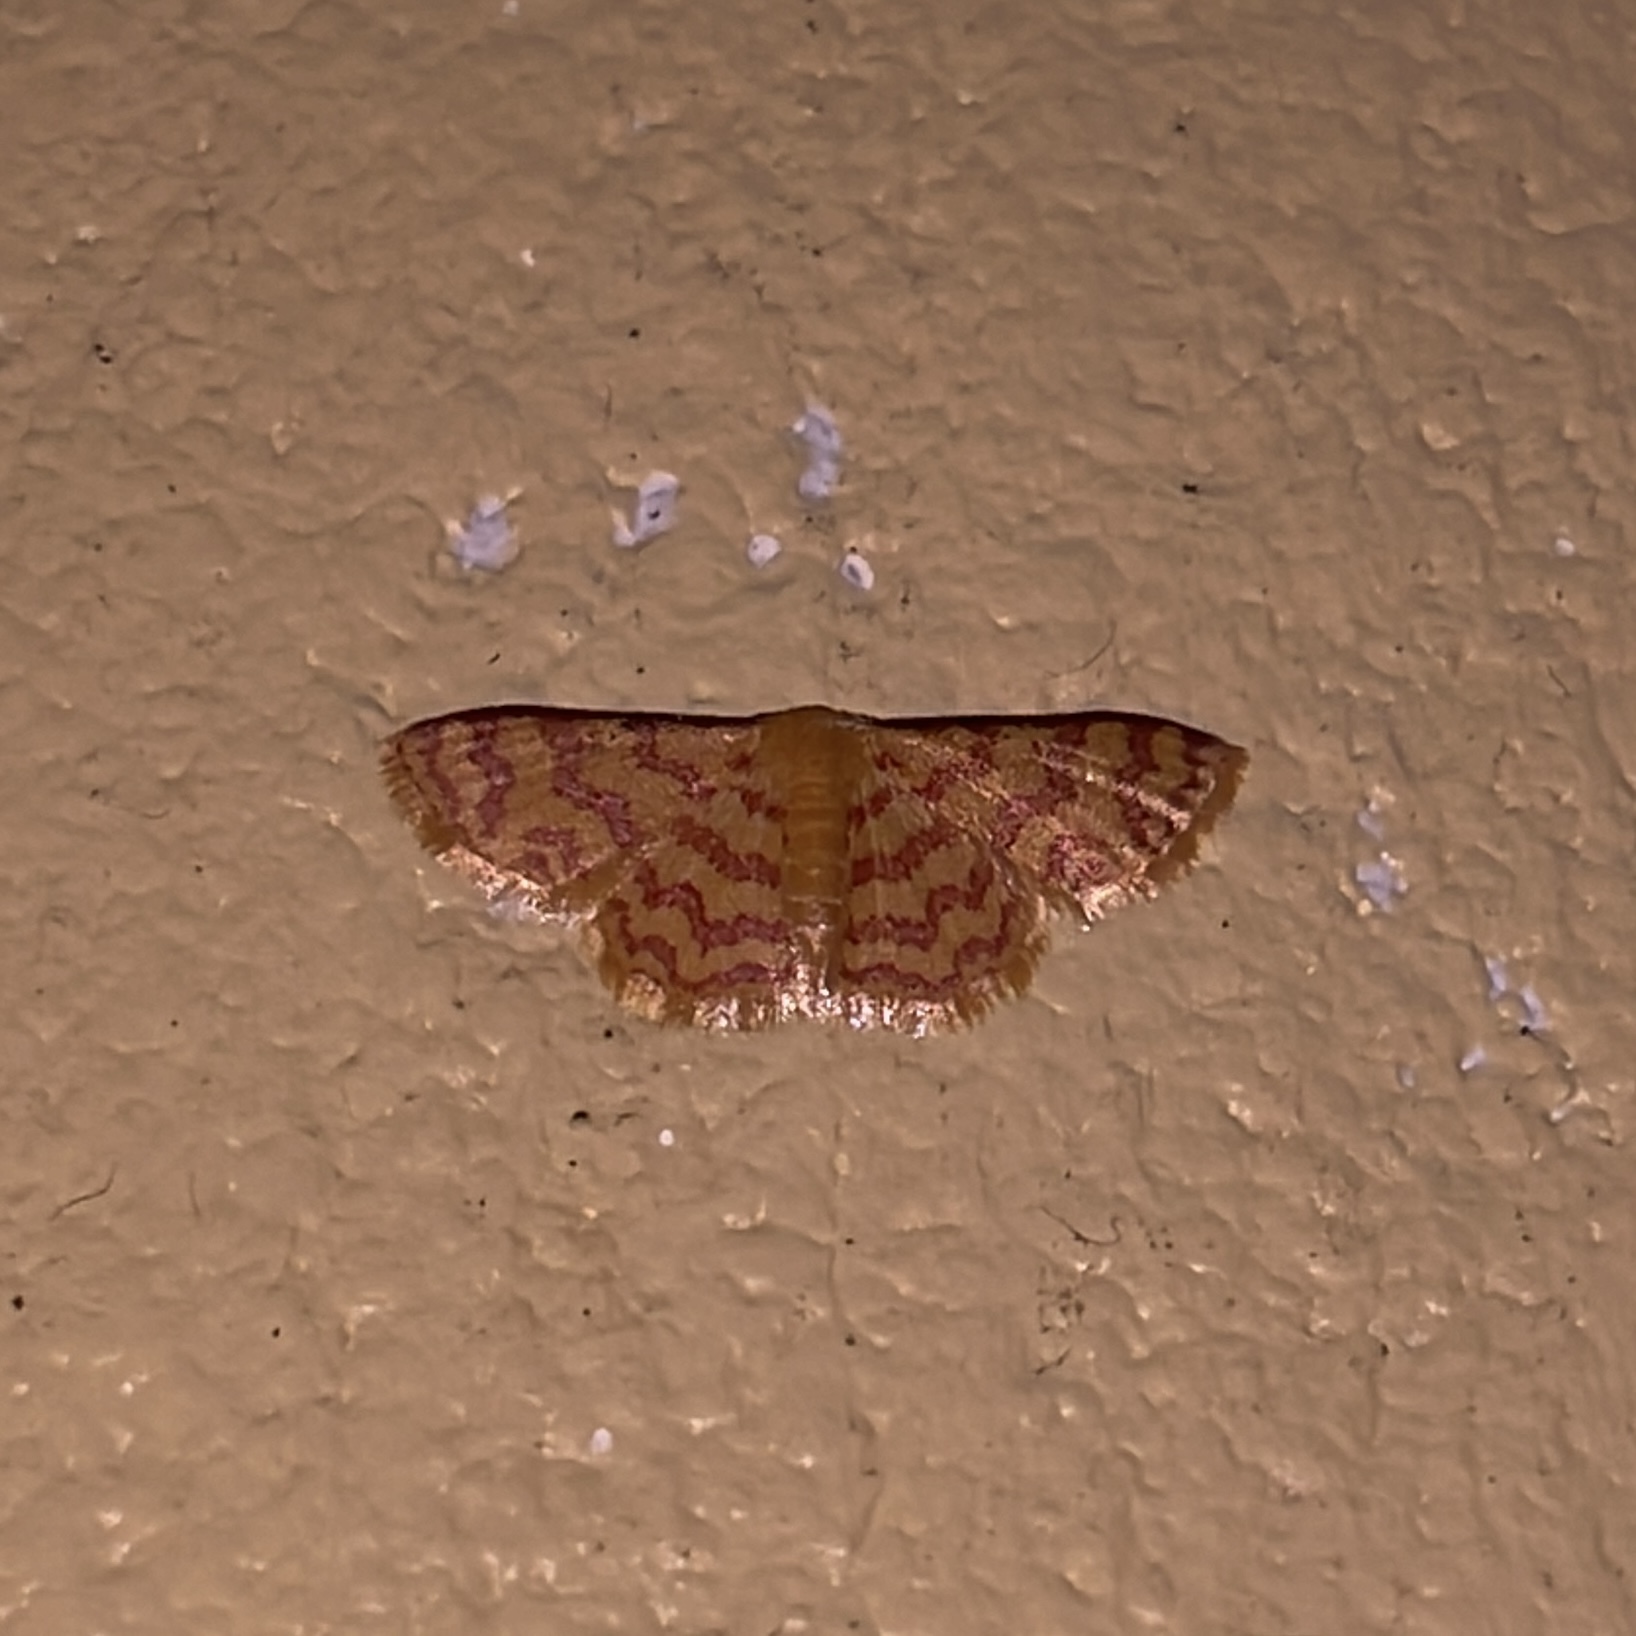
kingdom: Animalia
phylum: Arthropoda
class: Insecta
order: Lepidoptera
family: Geometridae
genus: Tricentrogyna
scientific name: Tricentrogyna deportata
